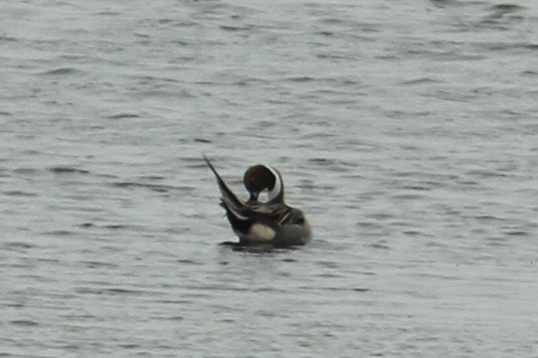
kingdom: Animalia
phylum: Chordata
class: Aves
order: Anseriformes
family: Anatidae
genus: Anas
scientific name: Anas acuta
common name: Northern pintail
